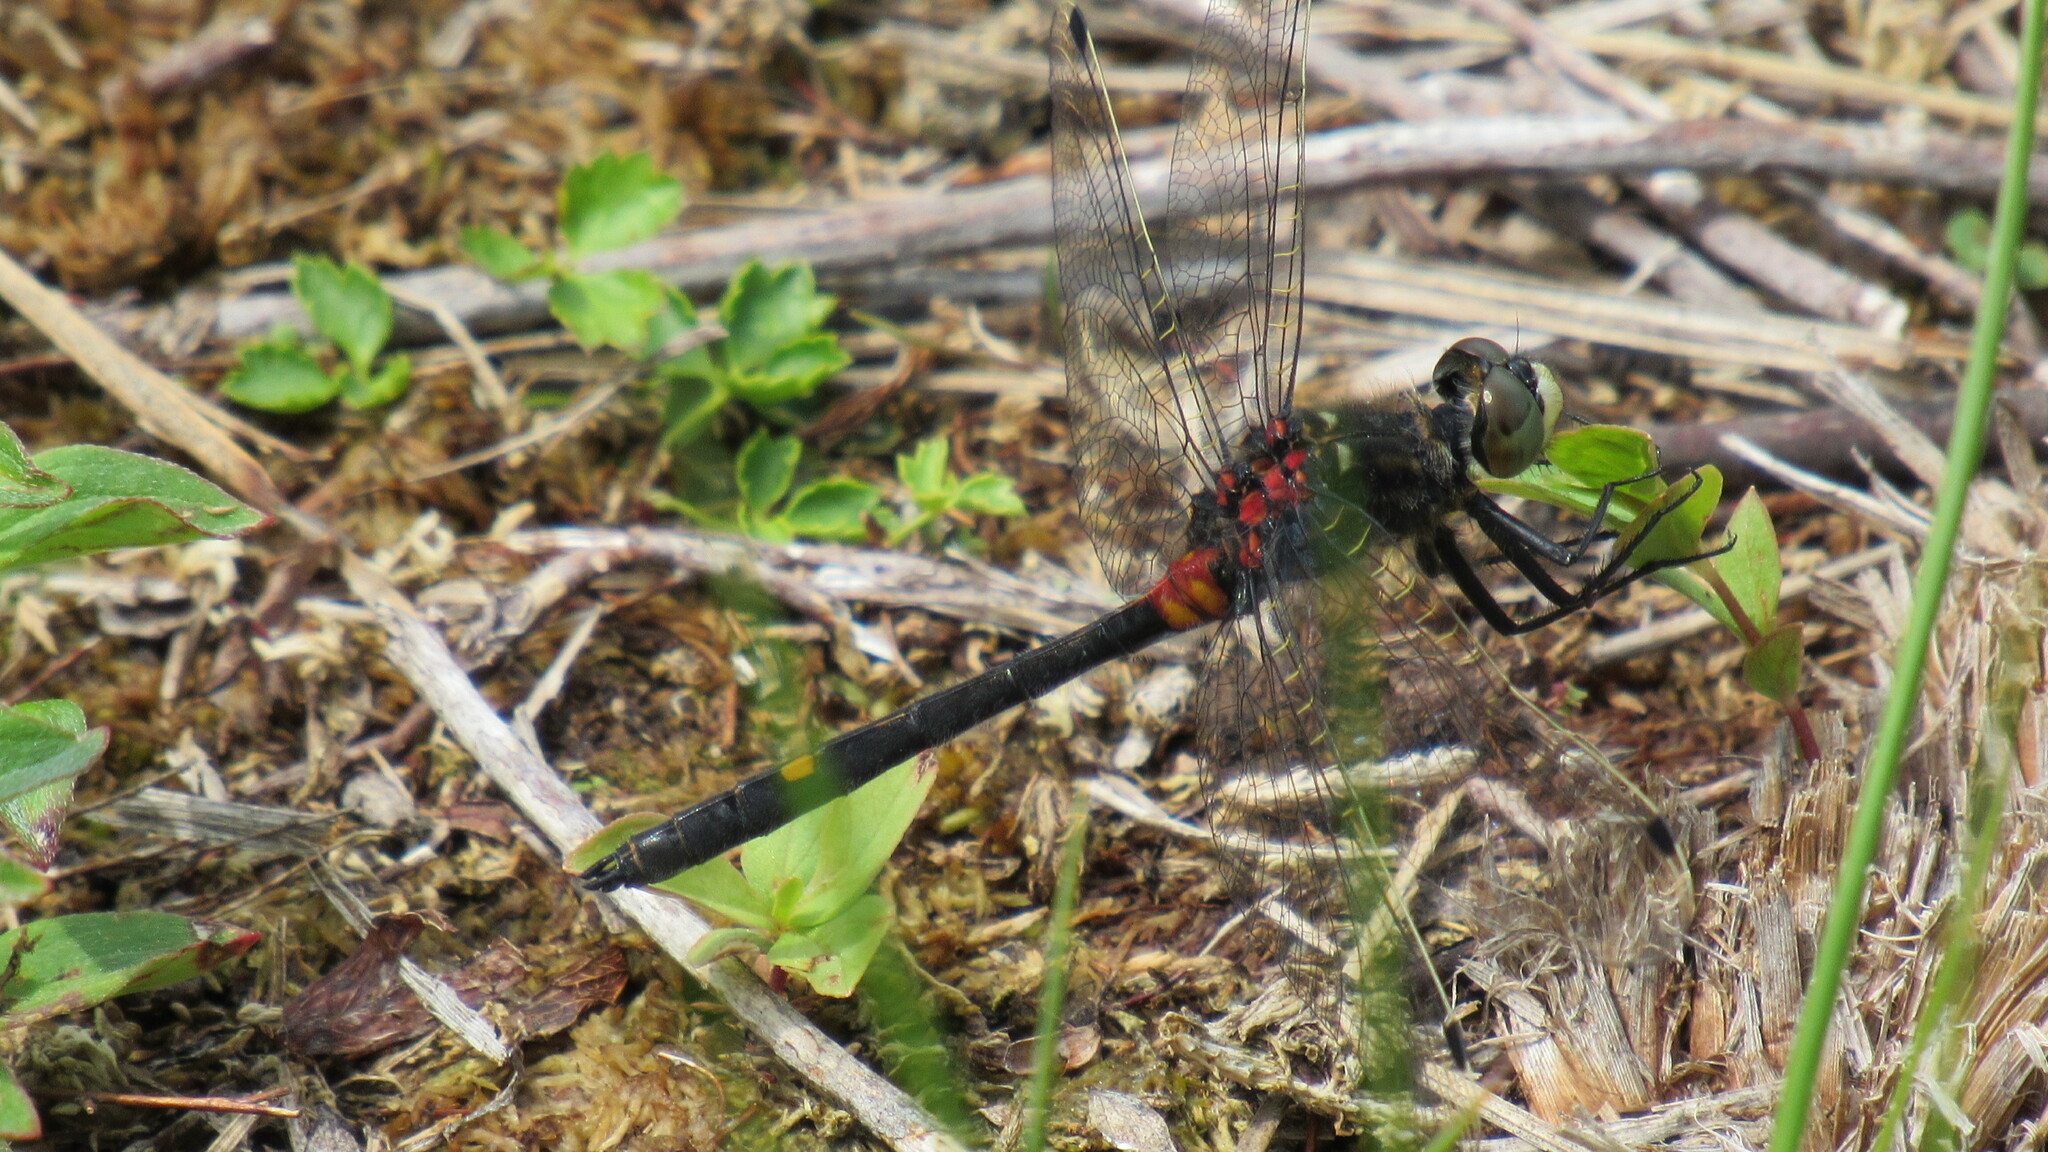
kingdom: Animalia
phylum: Arthropoda
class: Insecta
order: Odonata
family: Libellulidae
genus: Leucorrhinia
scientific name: Leucorrhinia orientalis
